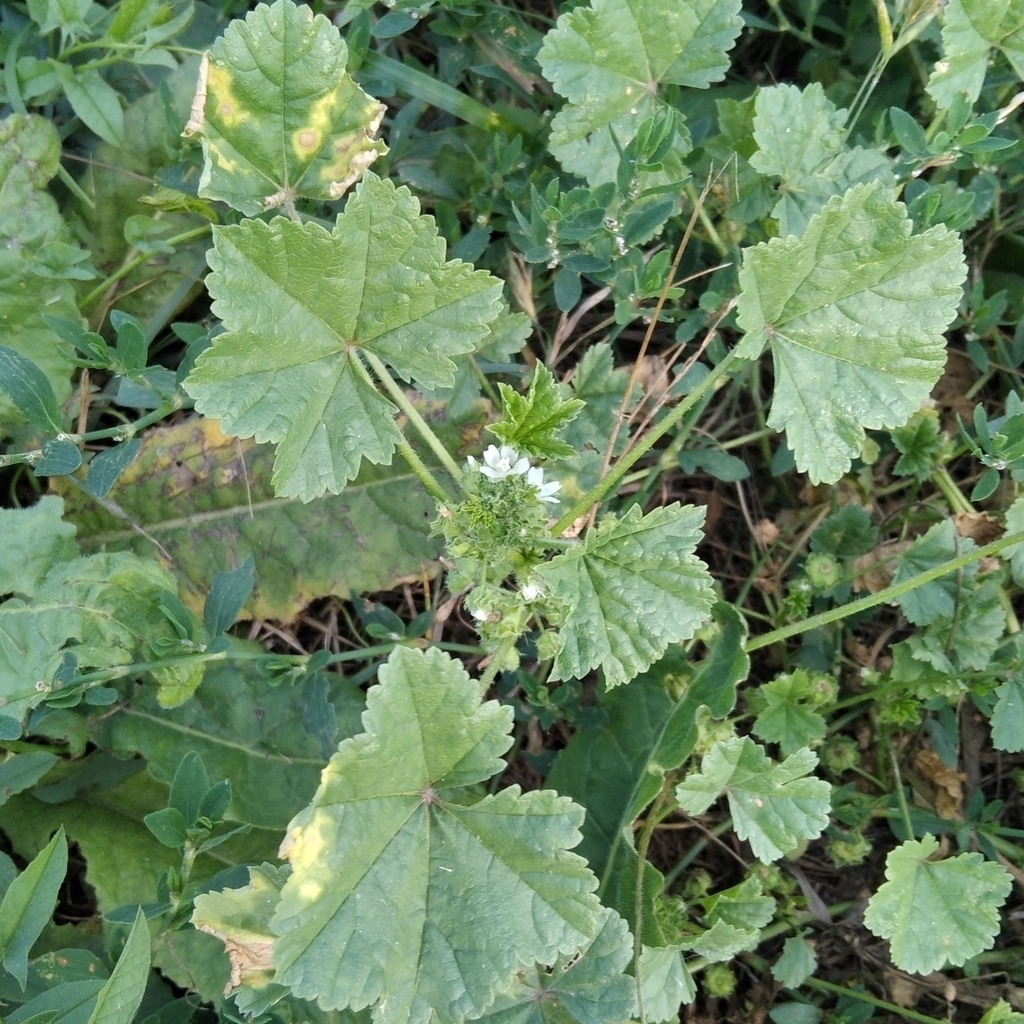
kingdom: Plantae
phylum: Tracheophyta
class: Magnoliopsida
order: Malvales
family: Malvaceae
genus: Malva
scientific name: Malva pusilla
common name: Small mallow
